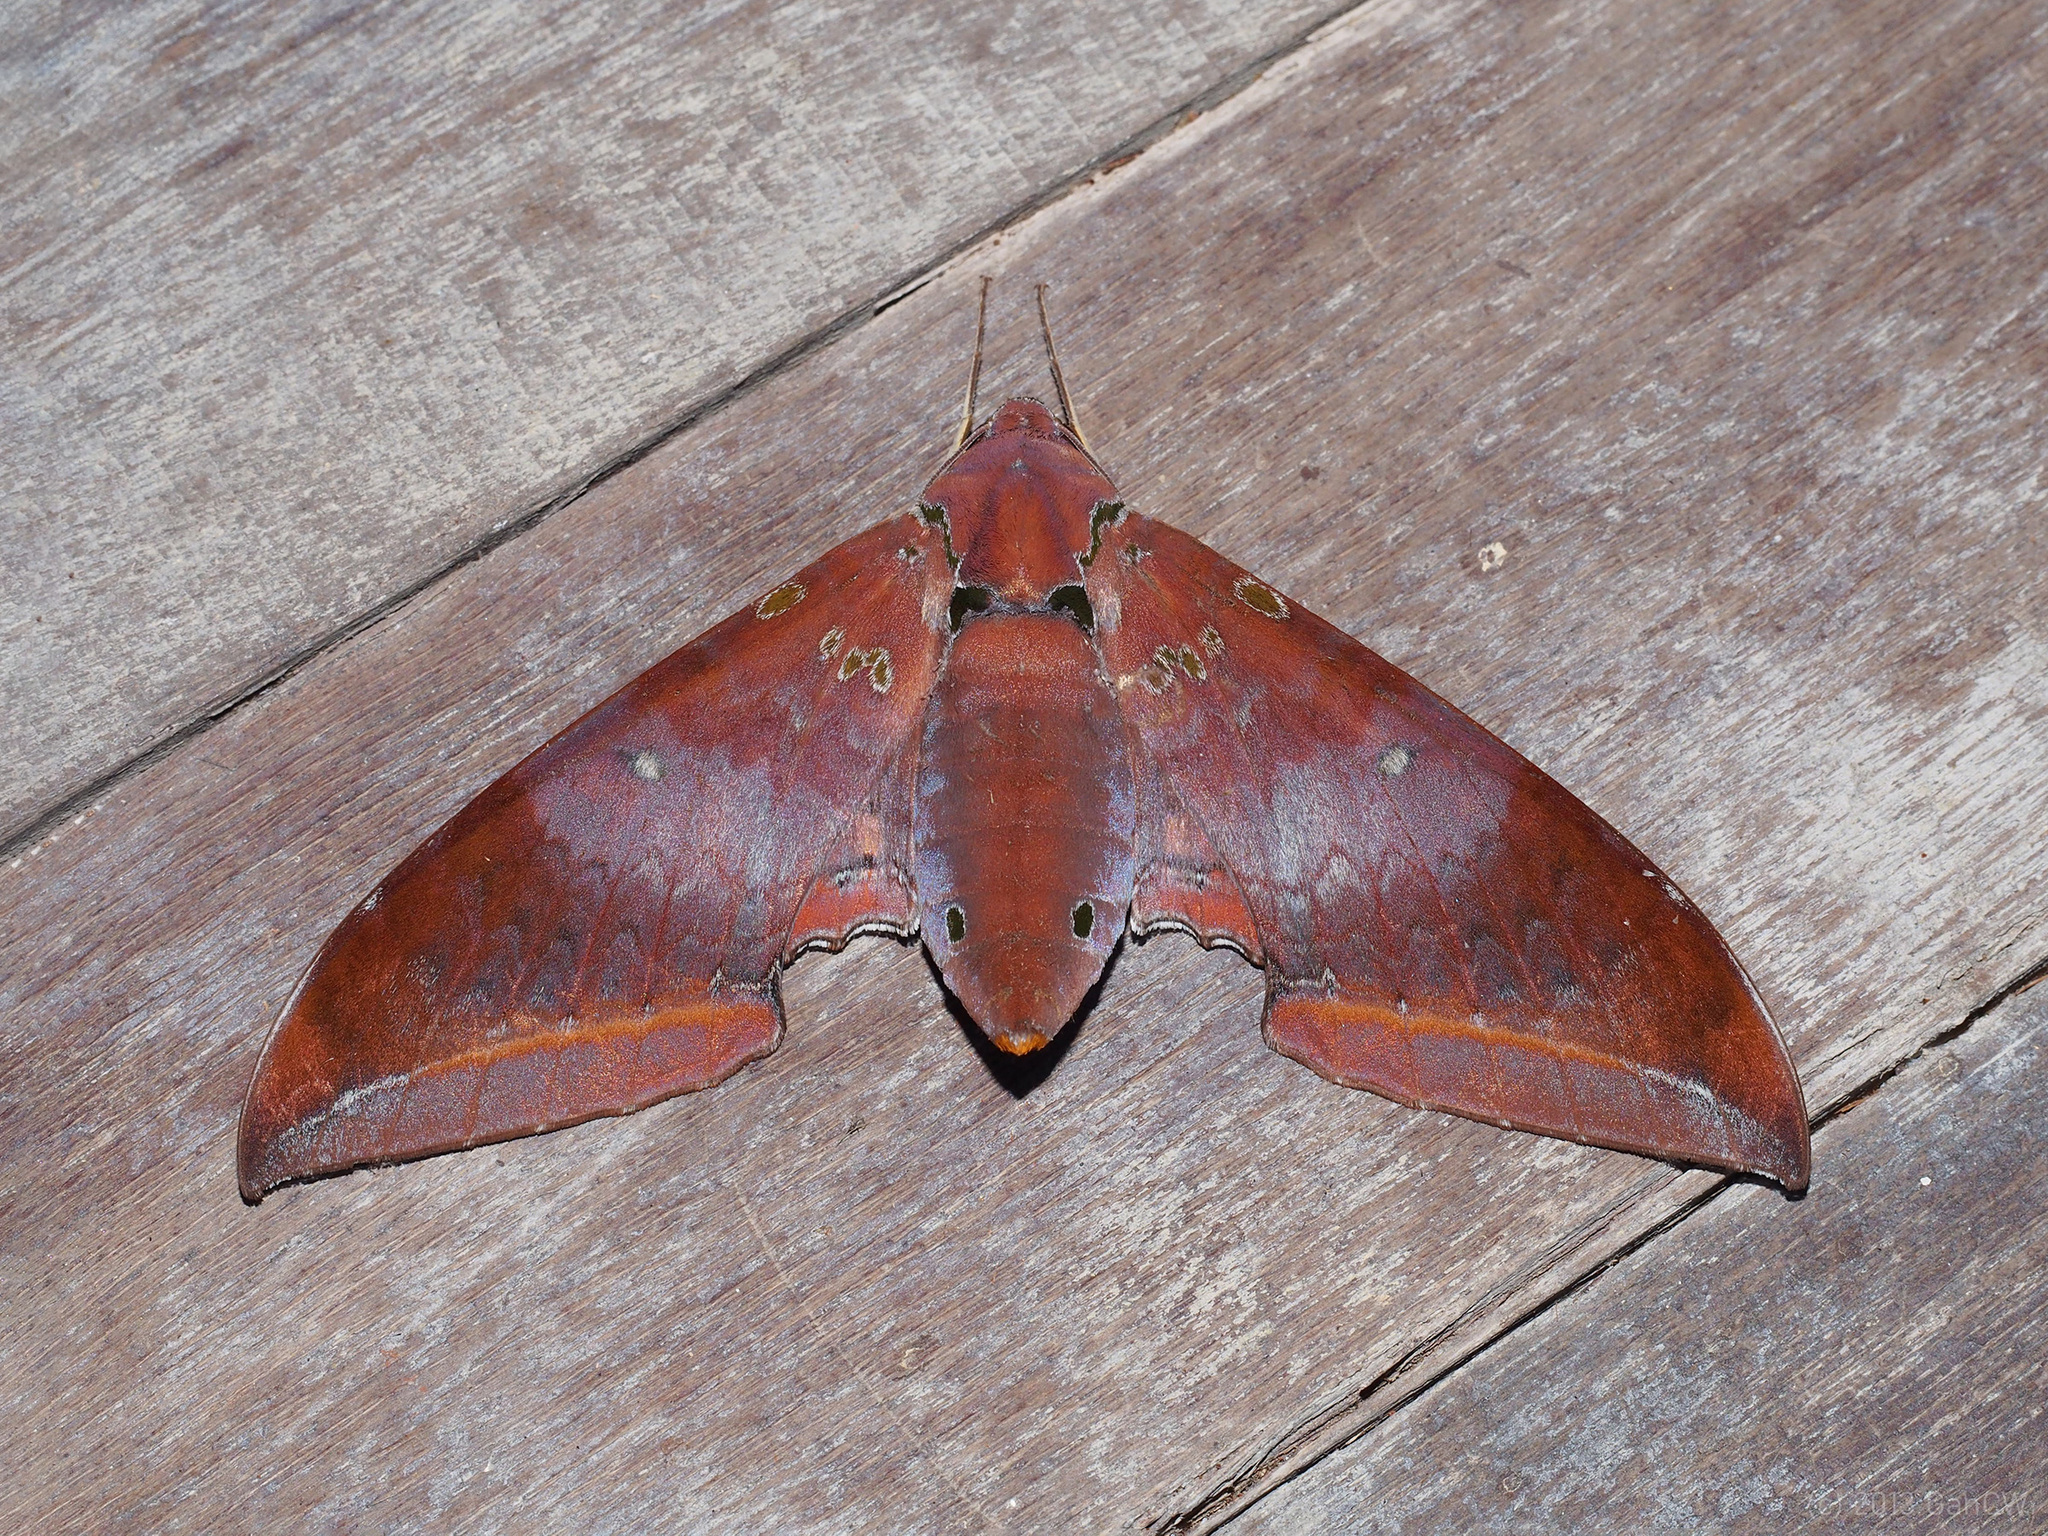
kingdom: Animalia
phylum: Arthropoda
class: Insecta
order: Lepidoptera
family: Sphingidae
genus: Ambulyx
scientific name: Ambulyx moorei
